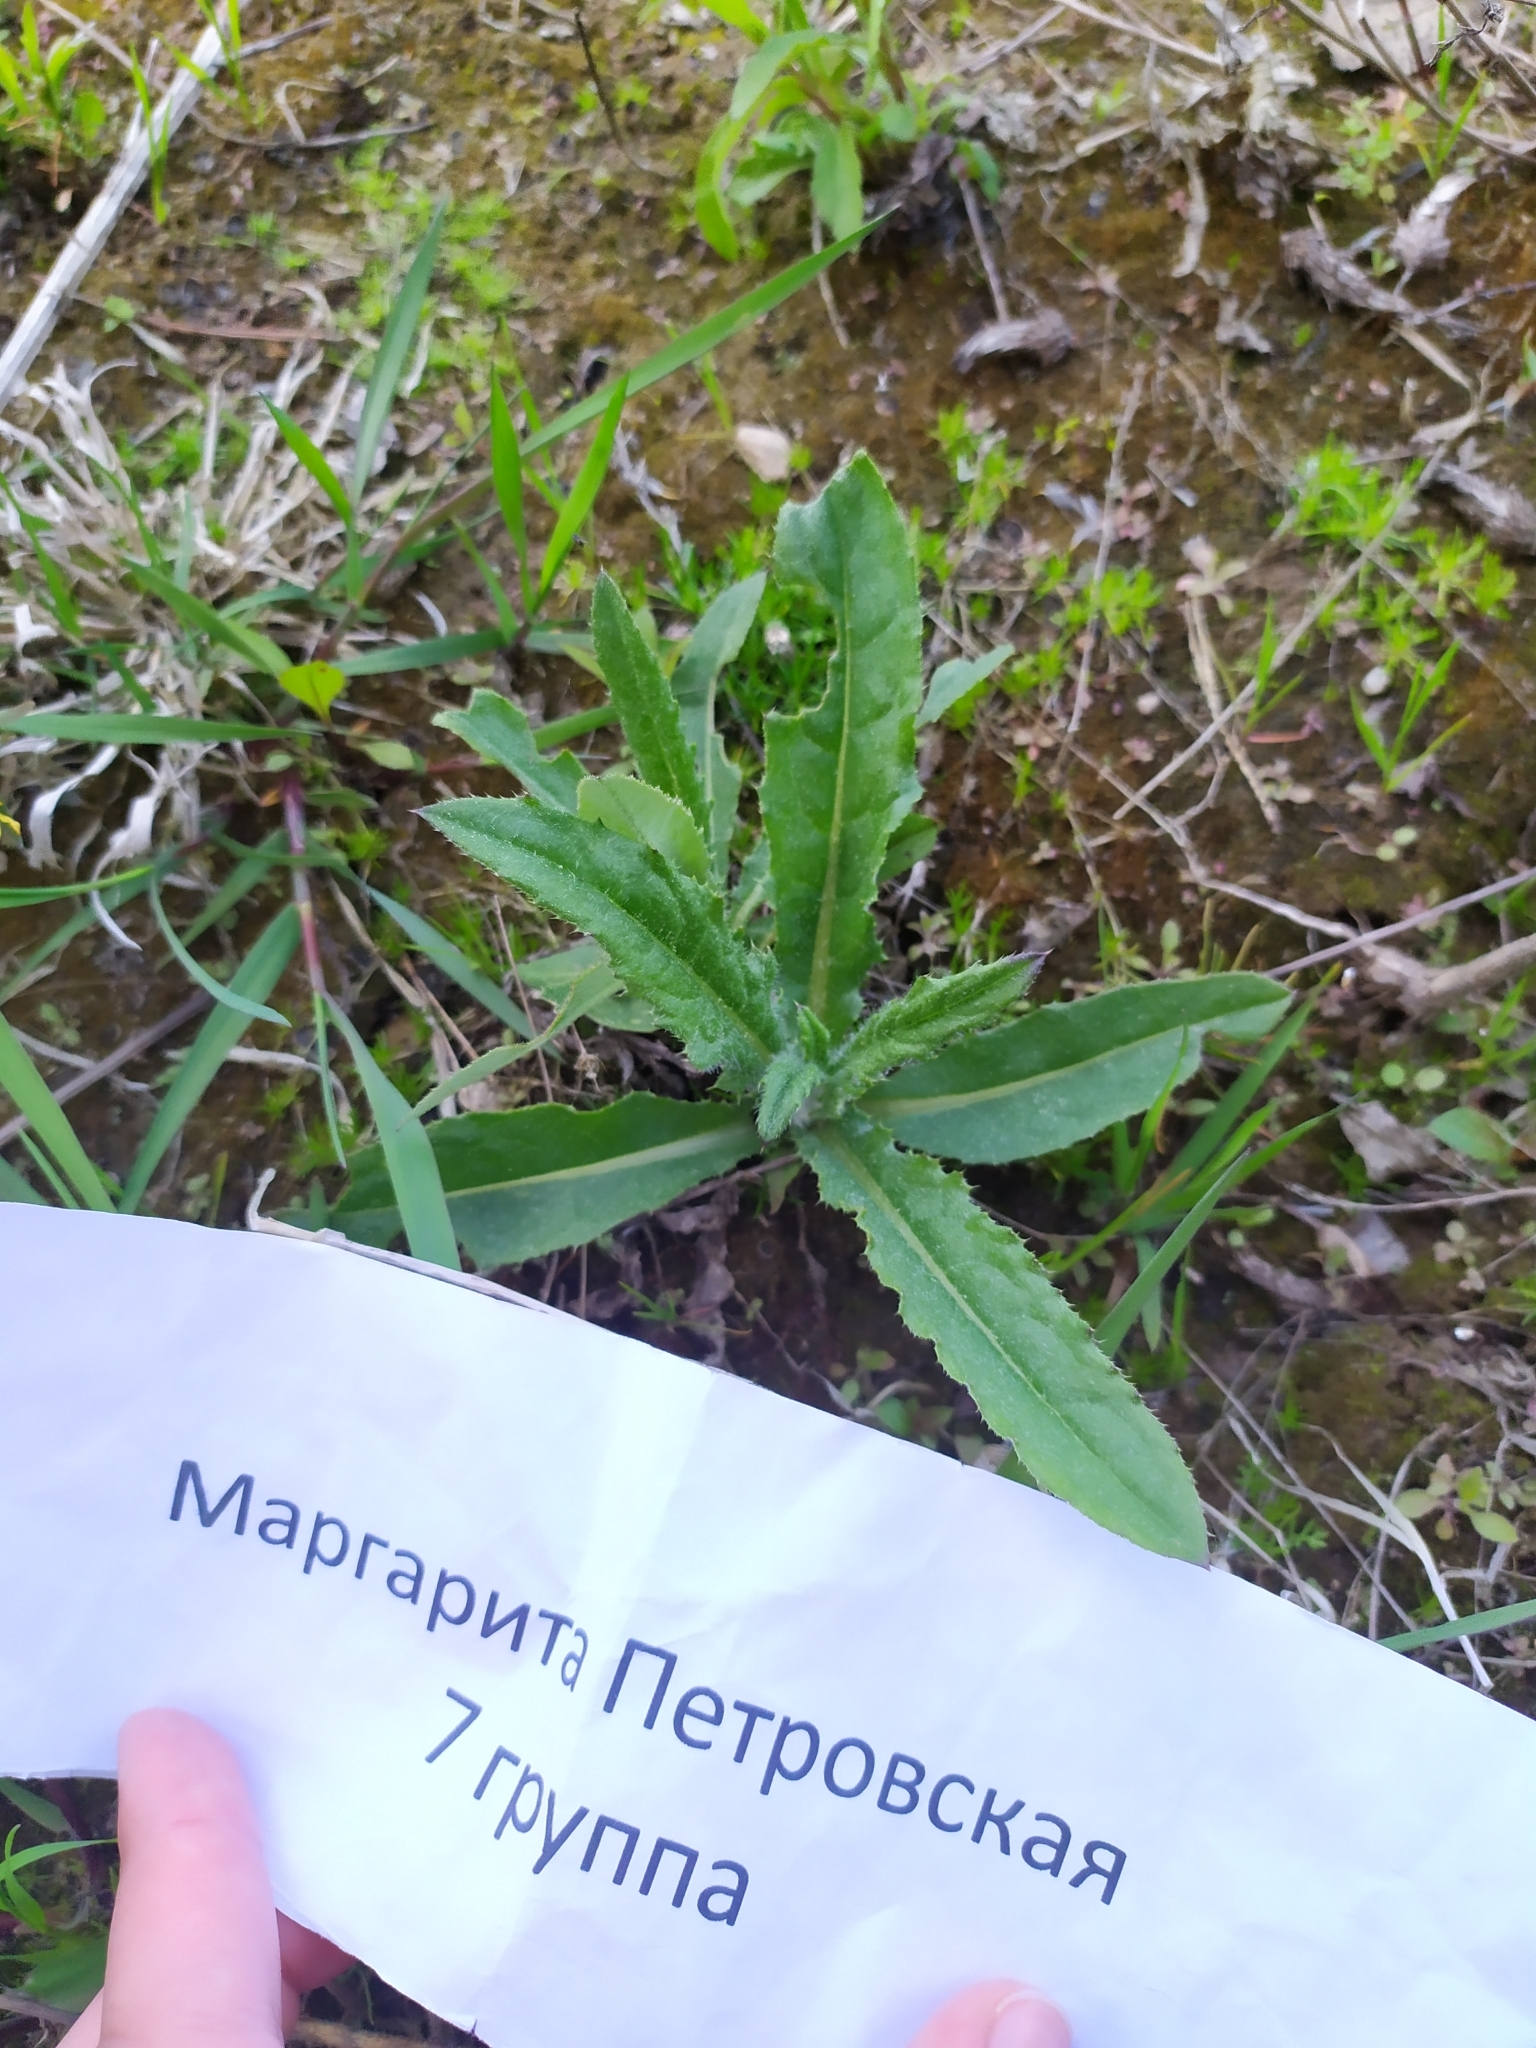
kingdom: Plantae
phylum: Tracheophyta
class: Magnoliopsida
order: Asterales
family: Asteraceae
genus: Cirsium
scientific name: Cirsium arvense
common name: Creeping thistle
